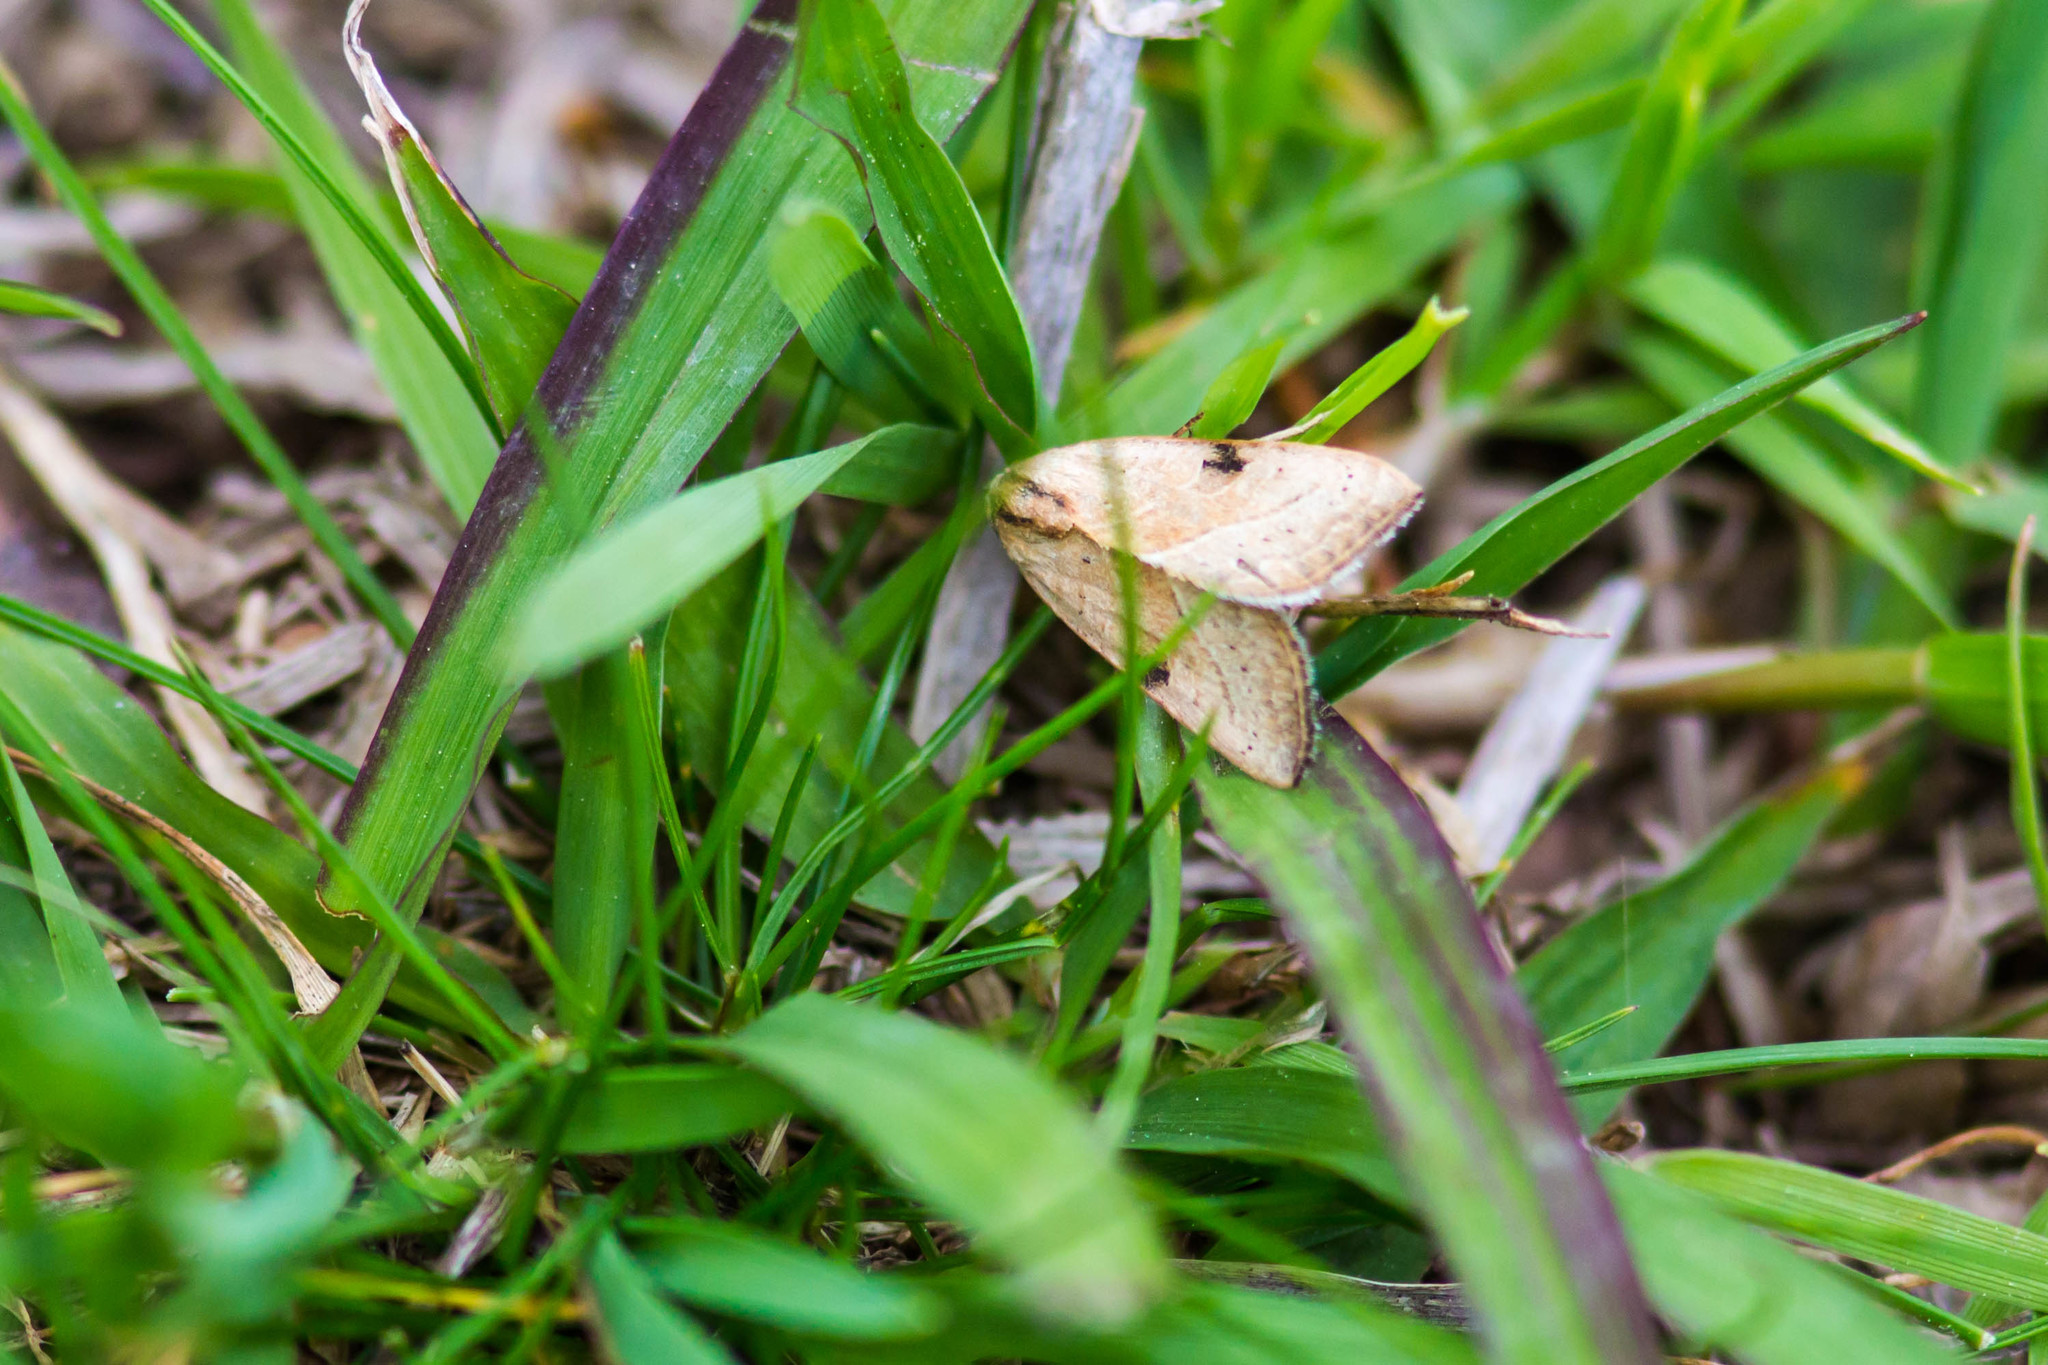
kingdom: Animalia
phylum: Arthropoda
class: Insecta
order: Lepidoptera
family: Noctuidae
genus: Galgula
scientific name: Galgula partita
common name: Wedgeling
